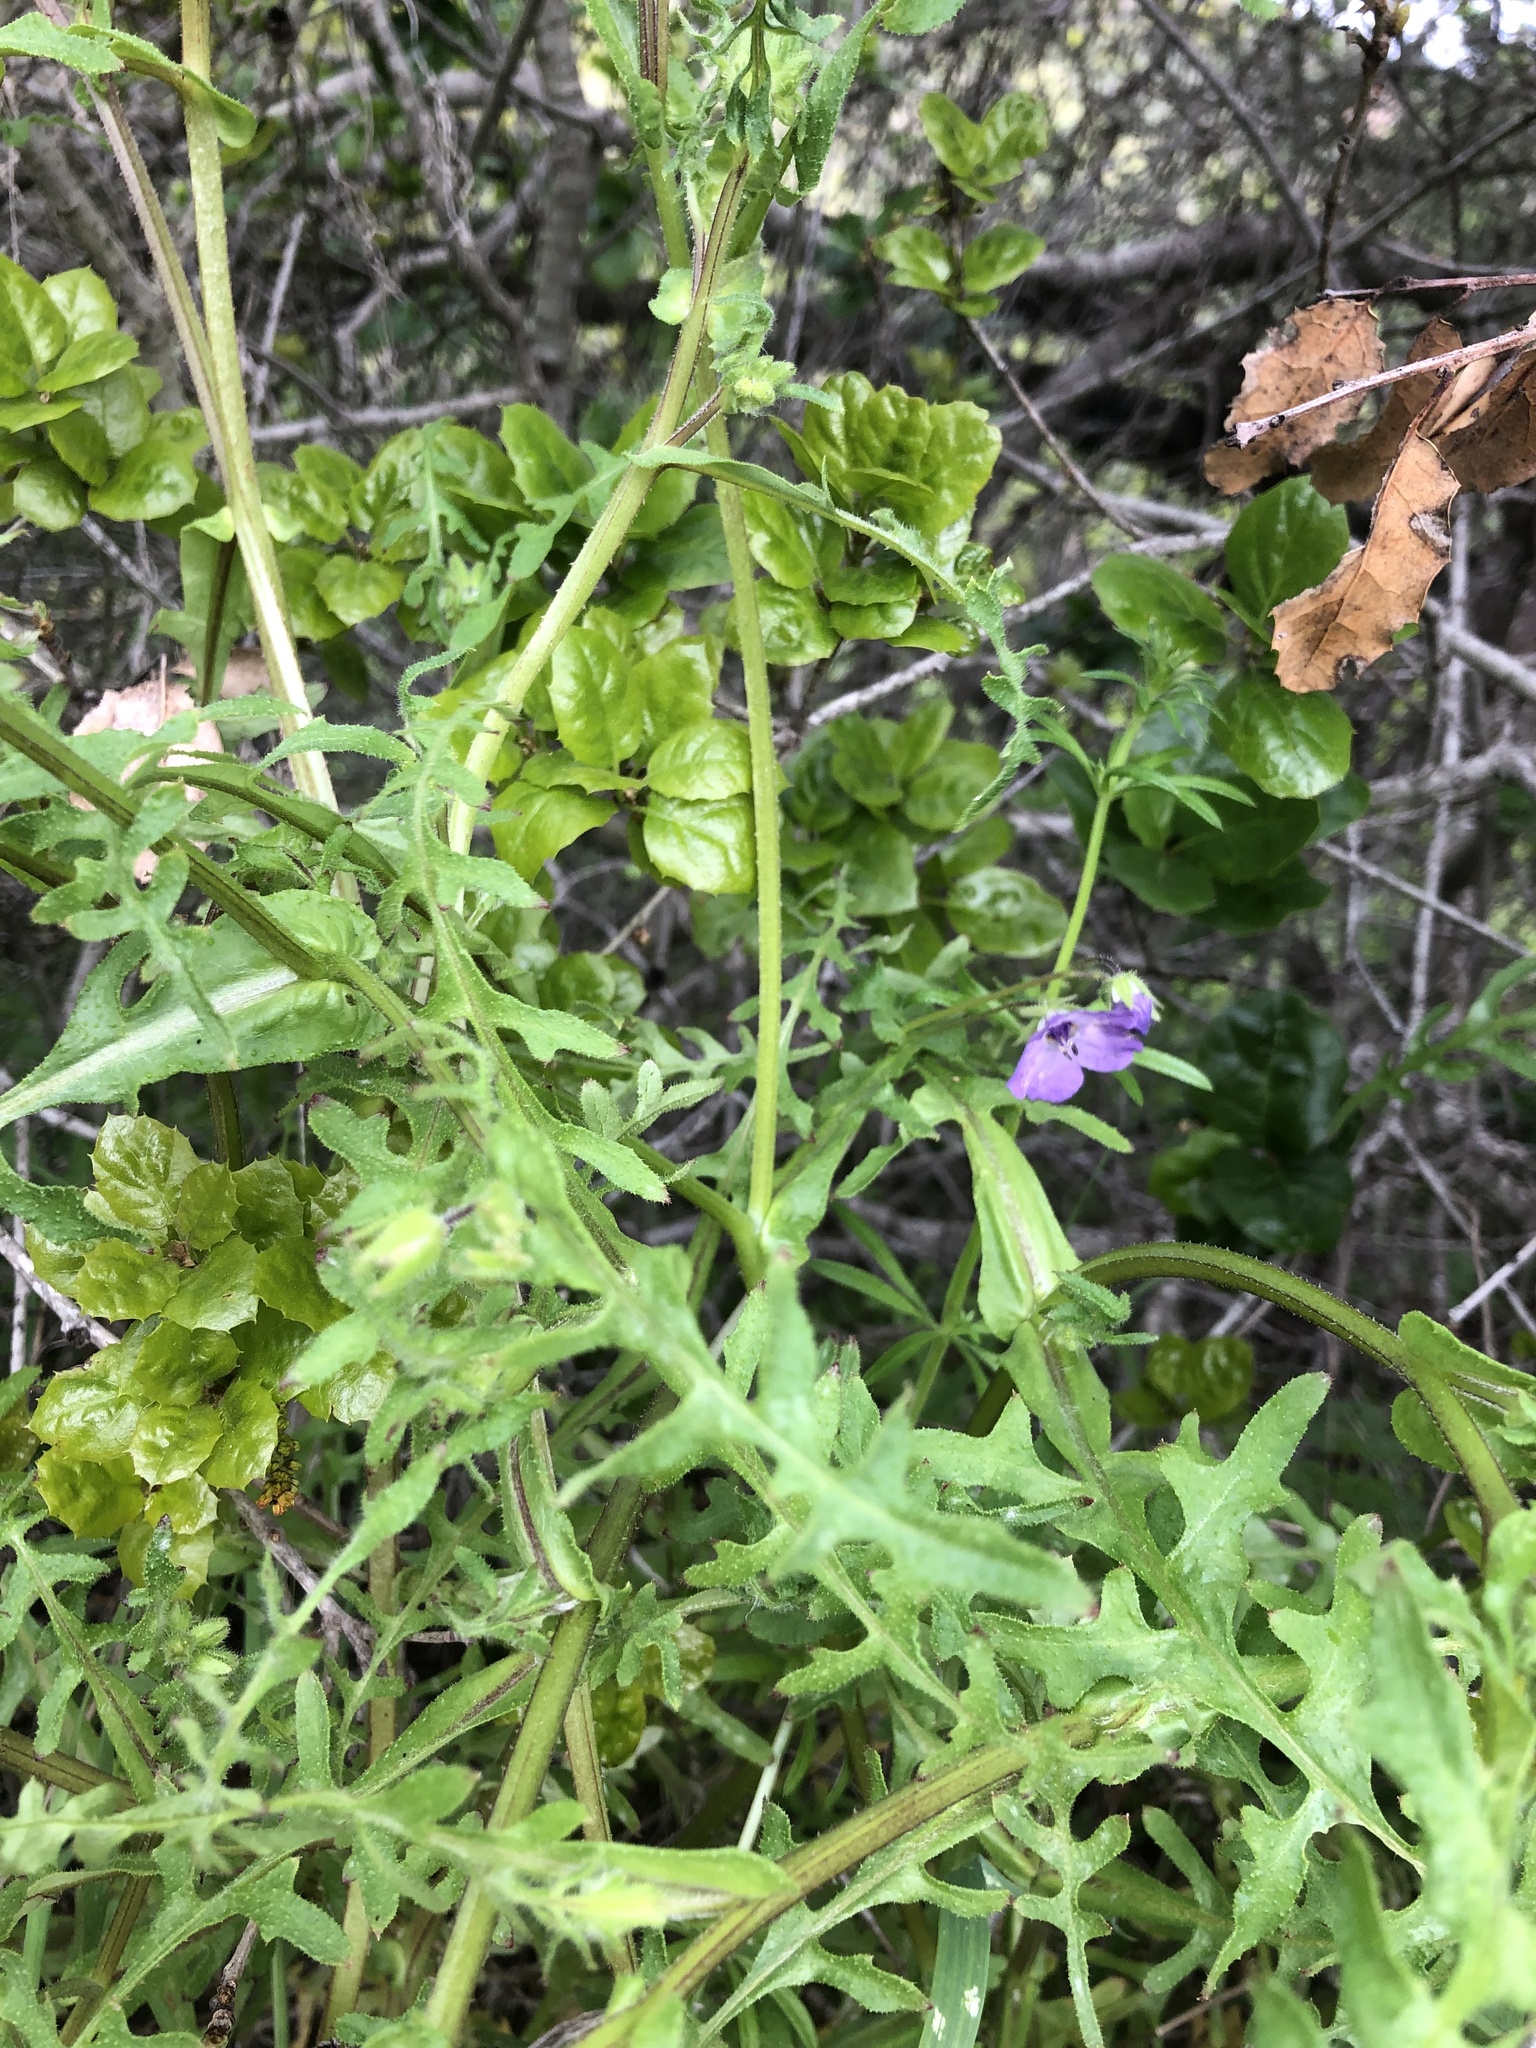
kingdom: Plantae
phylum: Tracheophyta
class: Magnoliopsida
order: Boraginales
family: Hydrophyllaceae
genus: Pholistoma
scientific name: Pholistoma auritum
